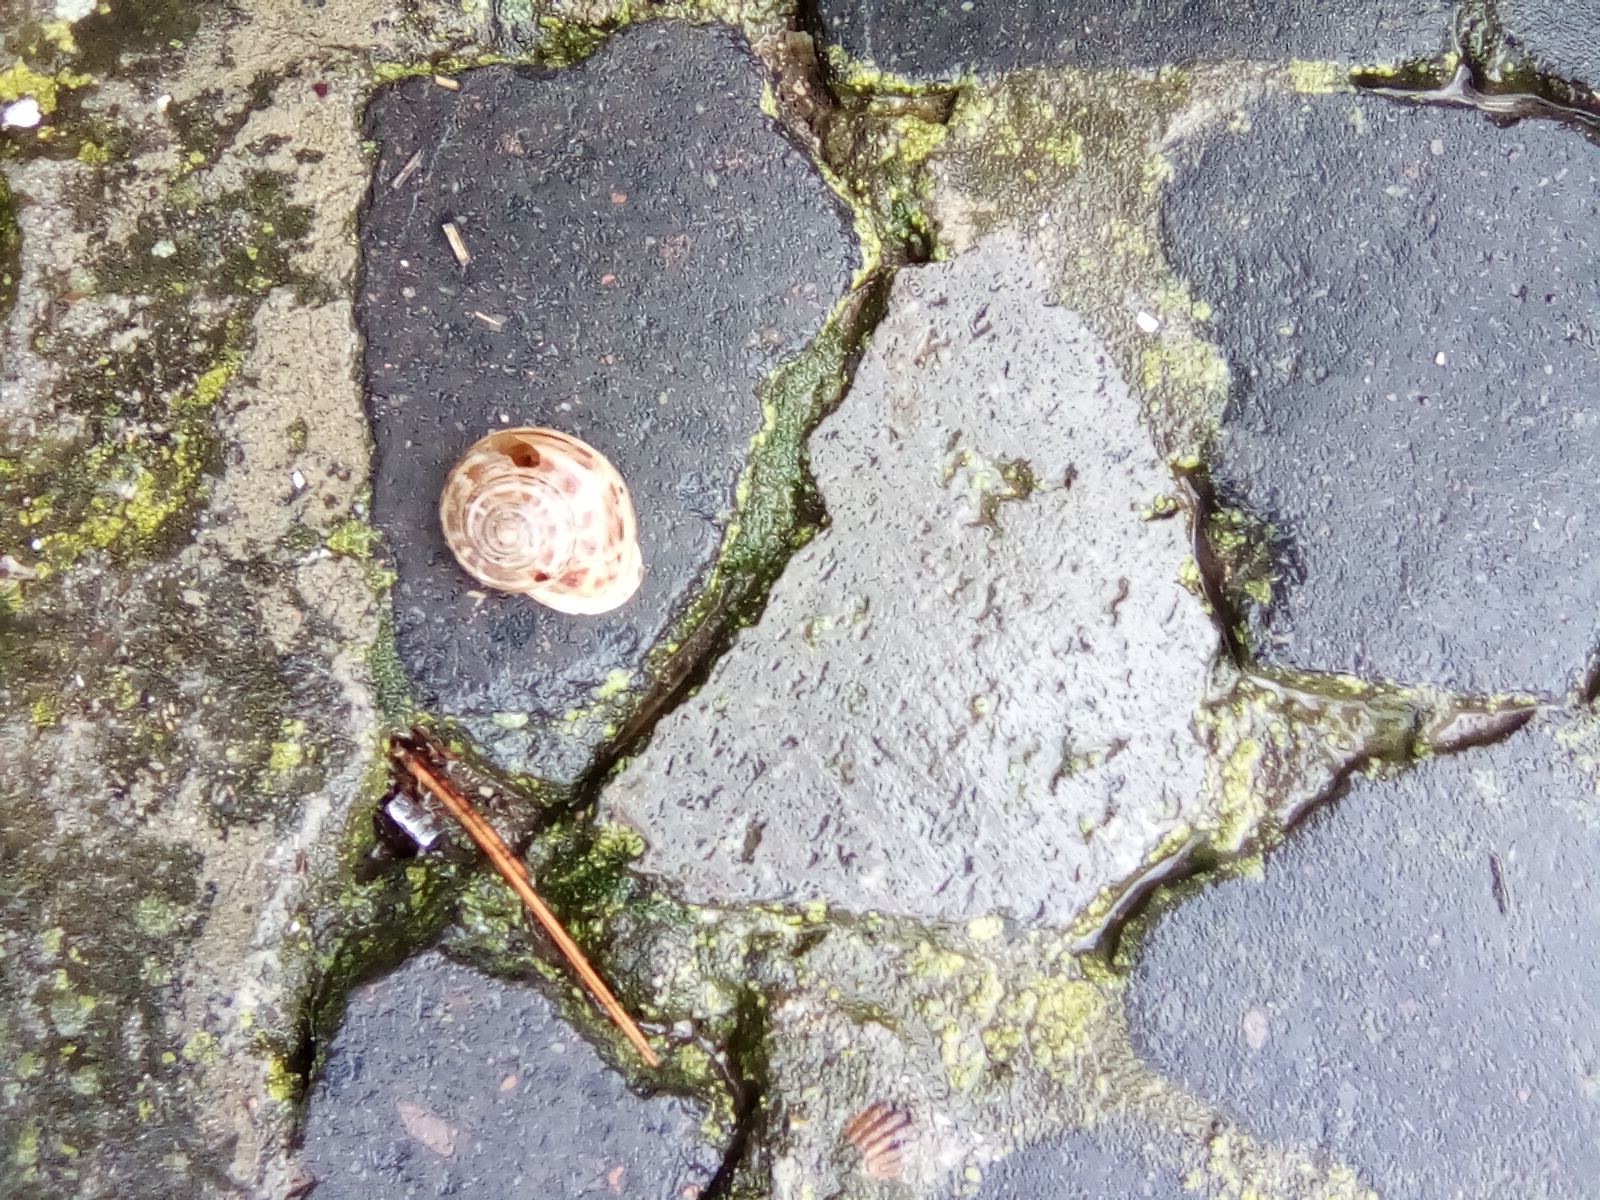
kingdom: Animalia
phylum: Mollusca
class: Gastropoda
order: Stylommatophora
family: Helicidae
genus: Eobania
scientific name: Eobania vermiculata
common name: Chocolateband snail
